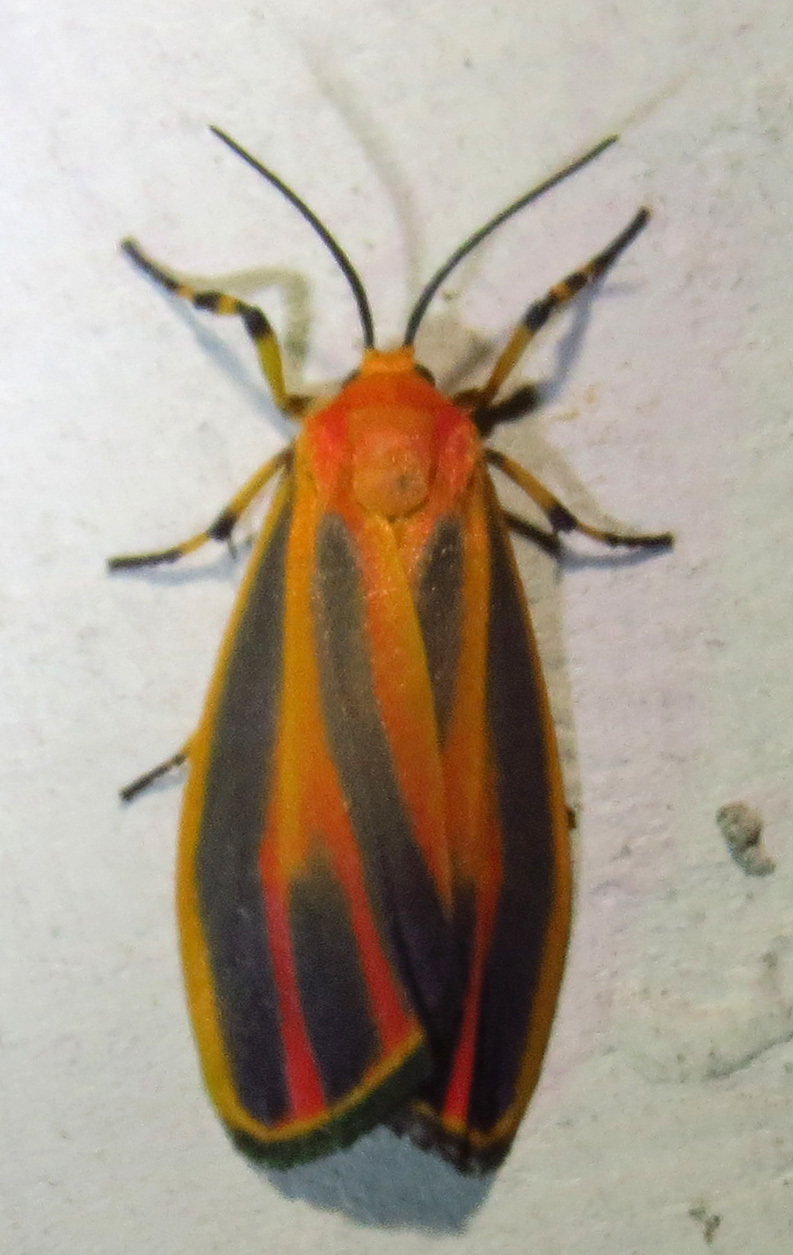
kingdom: Animalia
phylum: Arthropoda
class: Insecta
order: Lepidoptera
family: Erebidae
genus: Hypoprepia
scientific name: Hypoprepia fucosa
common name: Painted lichen moth
